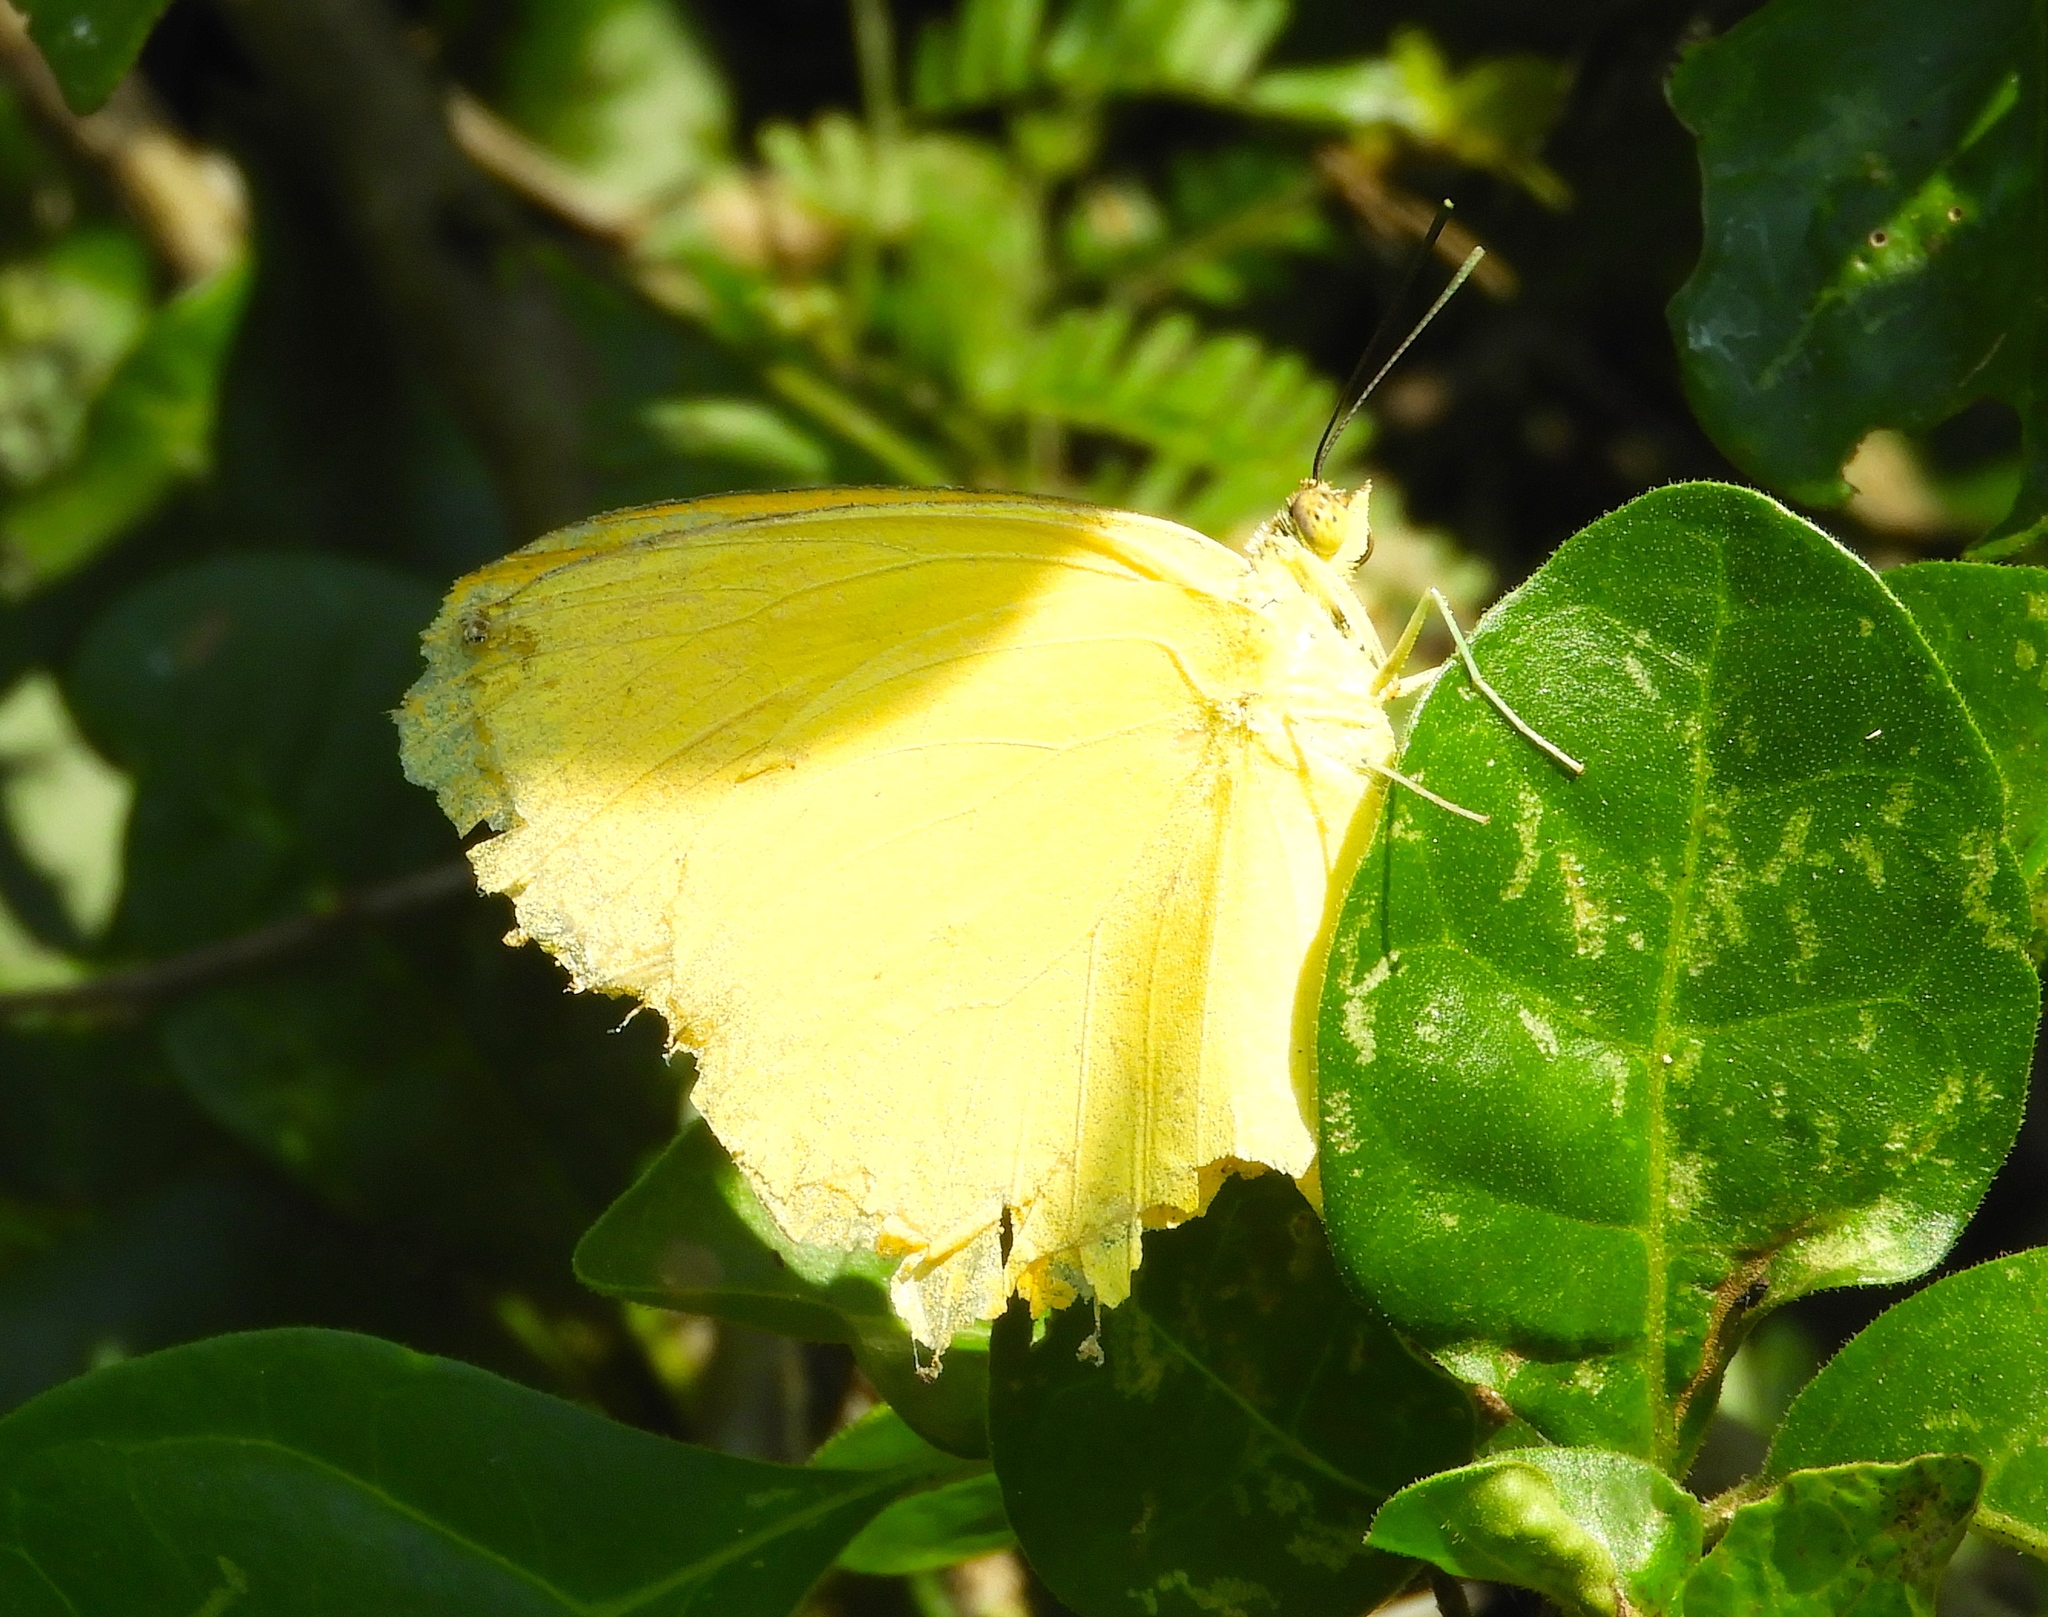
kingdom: Animalia
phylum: Arthropoda
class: Insecta
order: Lepidoptera
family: Pieridae
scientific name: Pieridae
